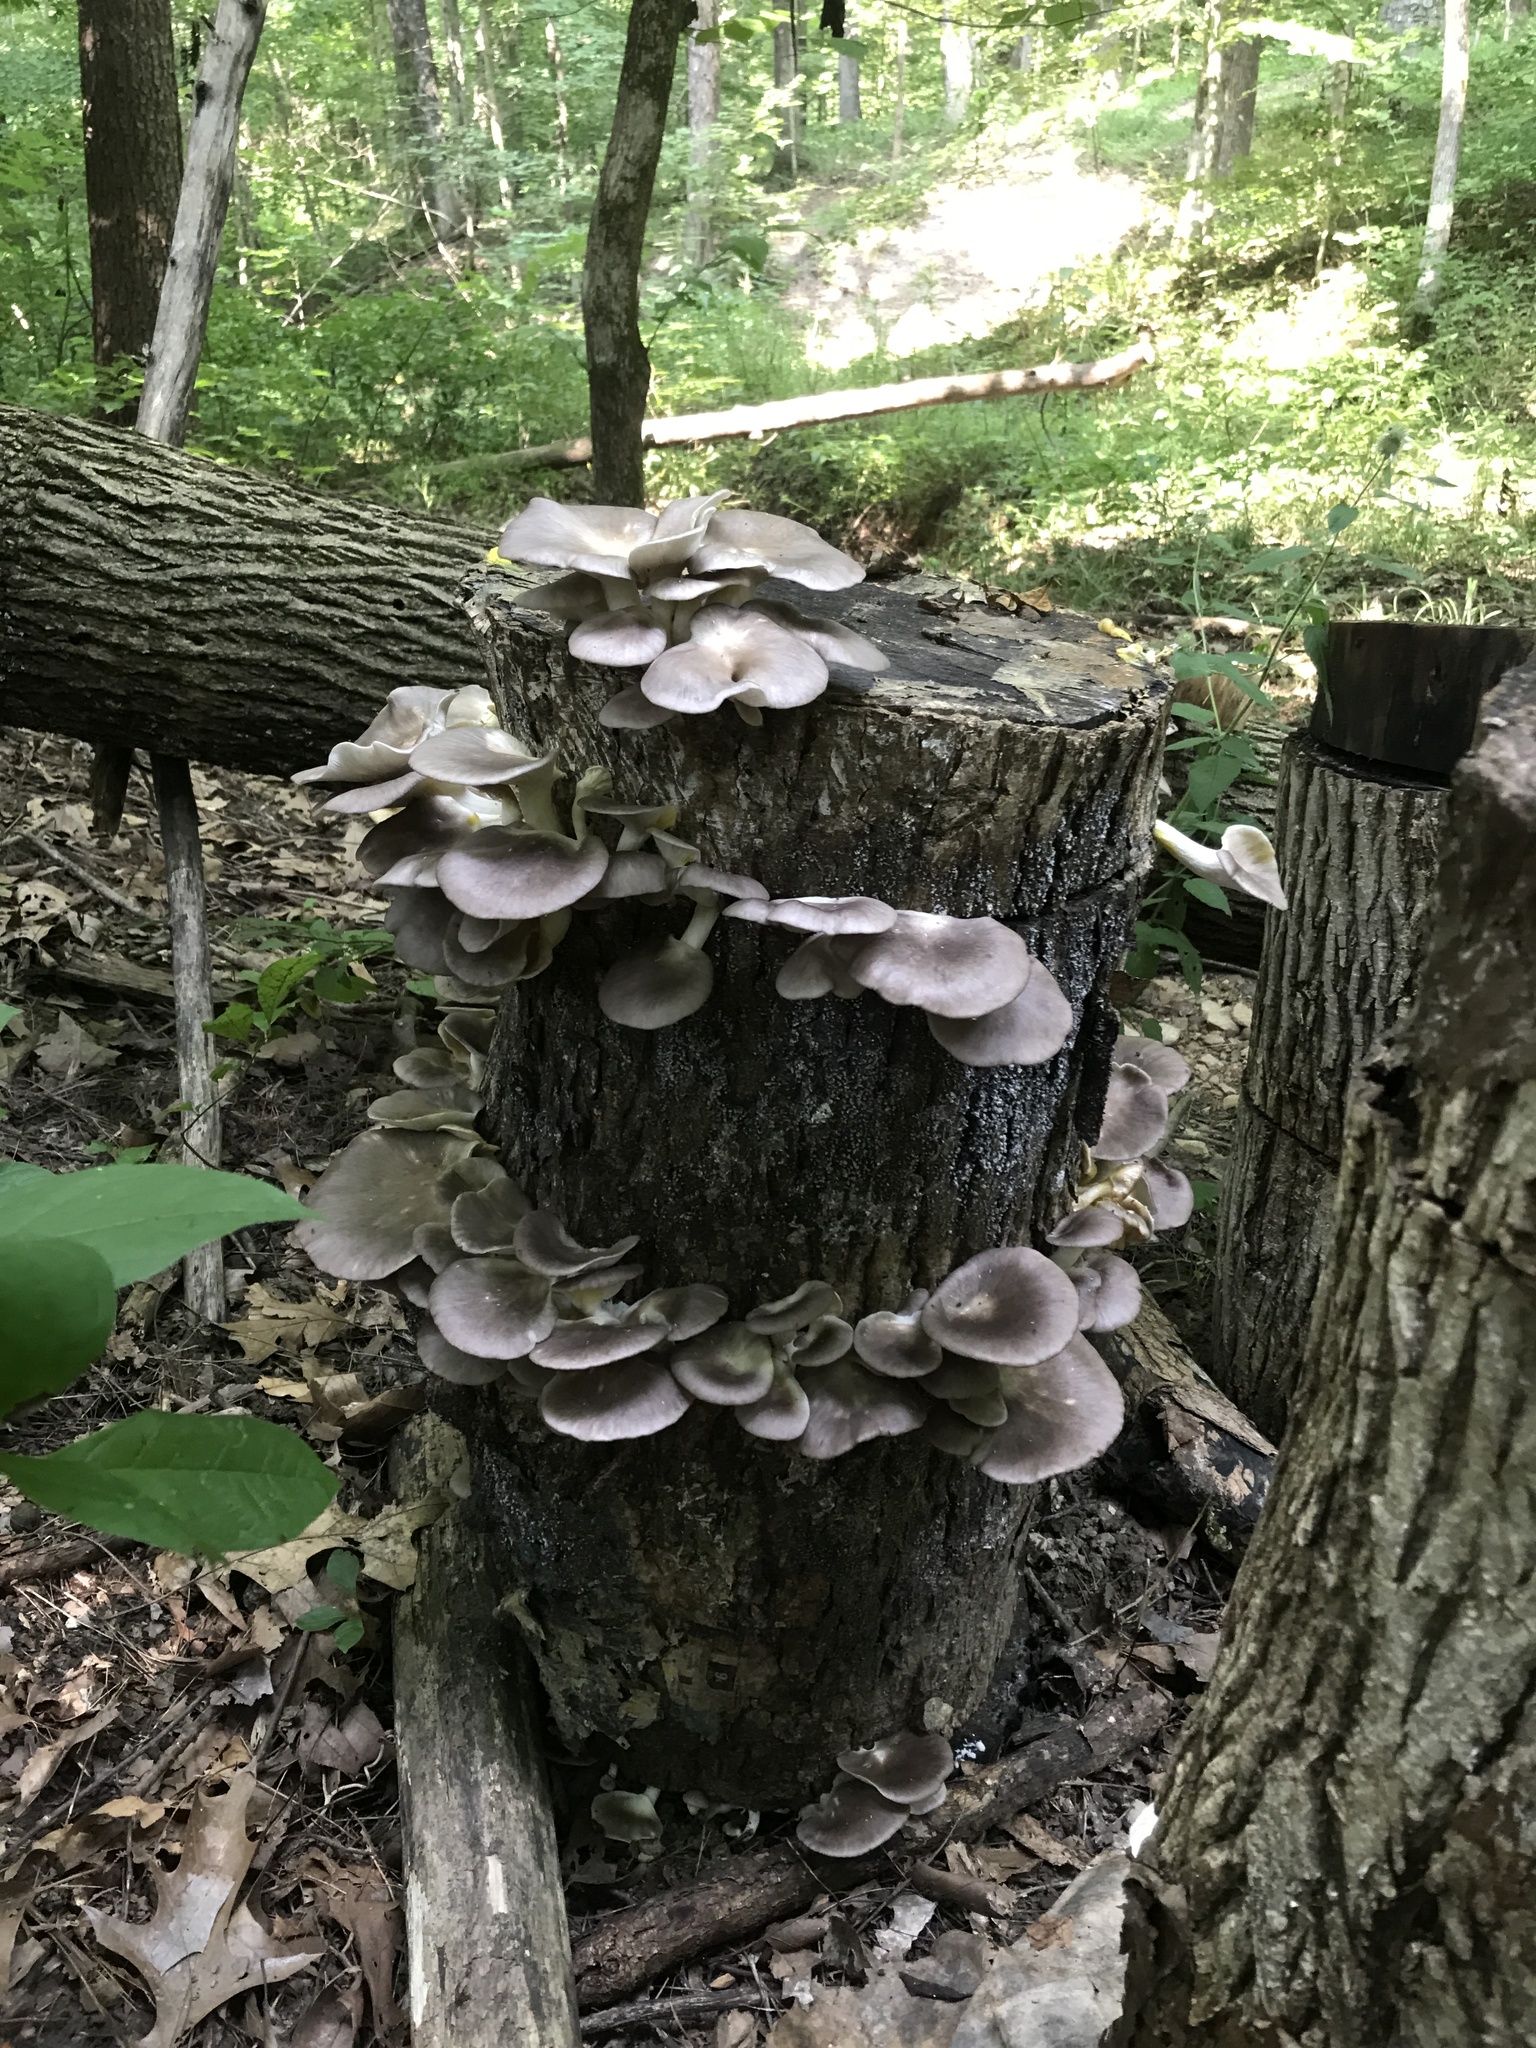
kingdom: Fungi
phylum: Basidiomycota
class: Agaricomycetes
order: Agaricales
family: Pleurotaceae
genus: Pleurotus
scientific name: Pleurotus ostreatus
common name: Oyster mushroom
